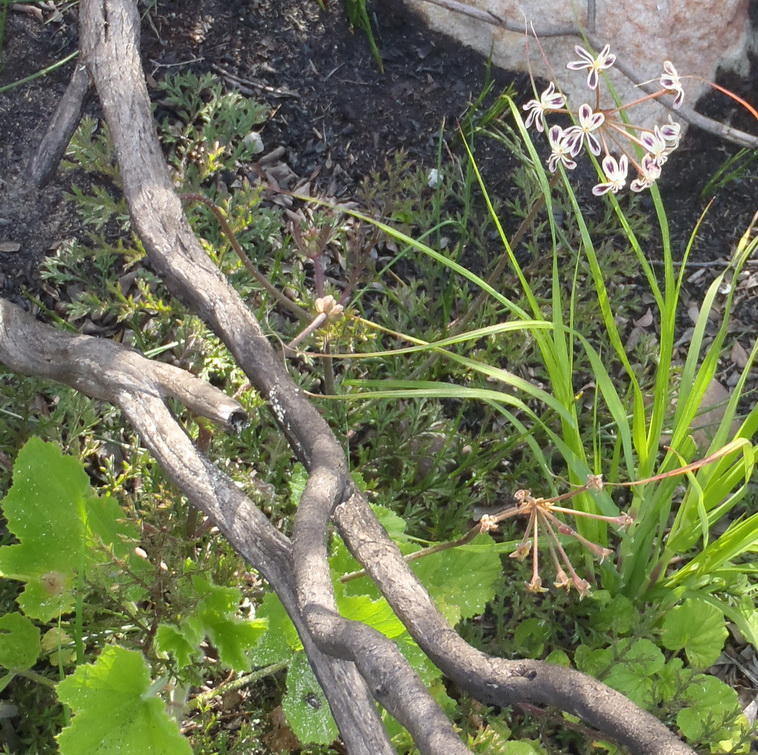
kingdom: Plantae
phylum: Tracheophyta
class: Magnoliopsida
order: Geraniales
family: Geraniaceae
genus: Pelargonium
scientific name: Pelargonium triste
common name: Night-scent pelargonium
